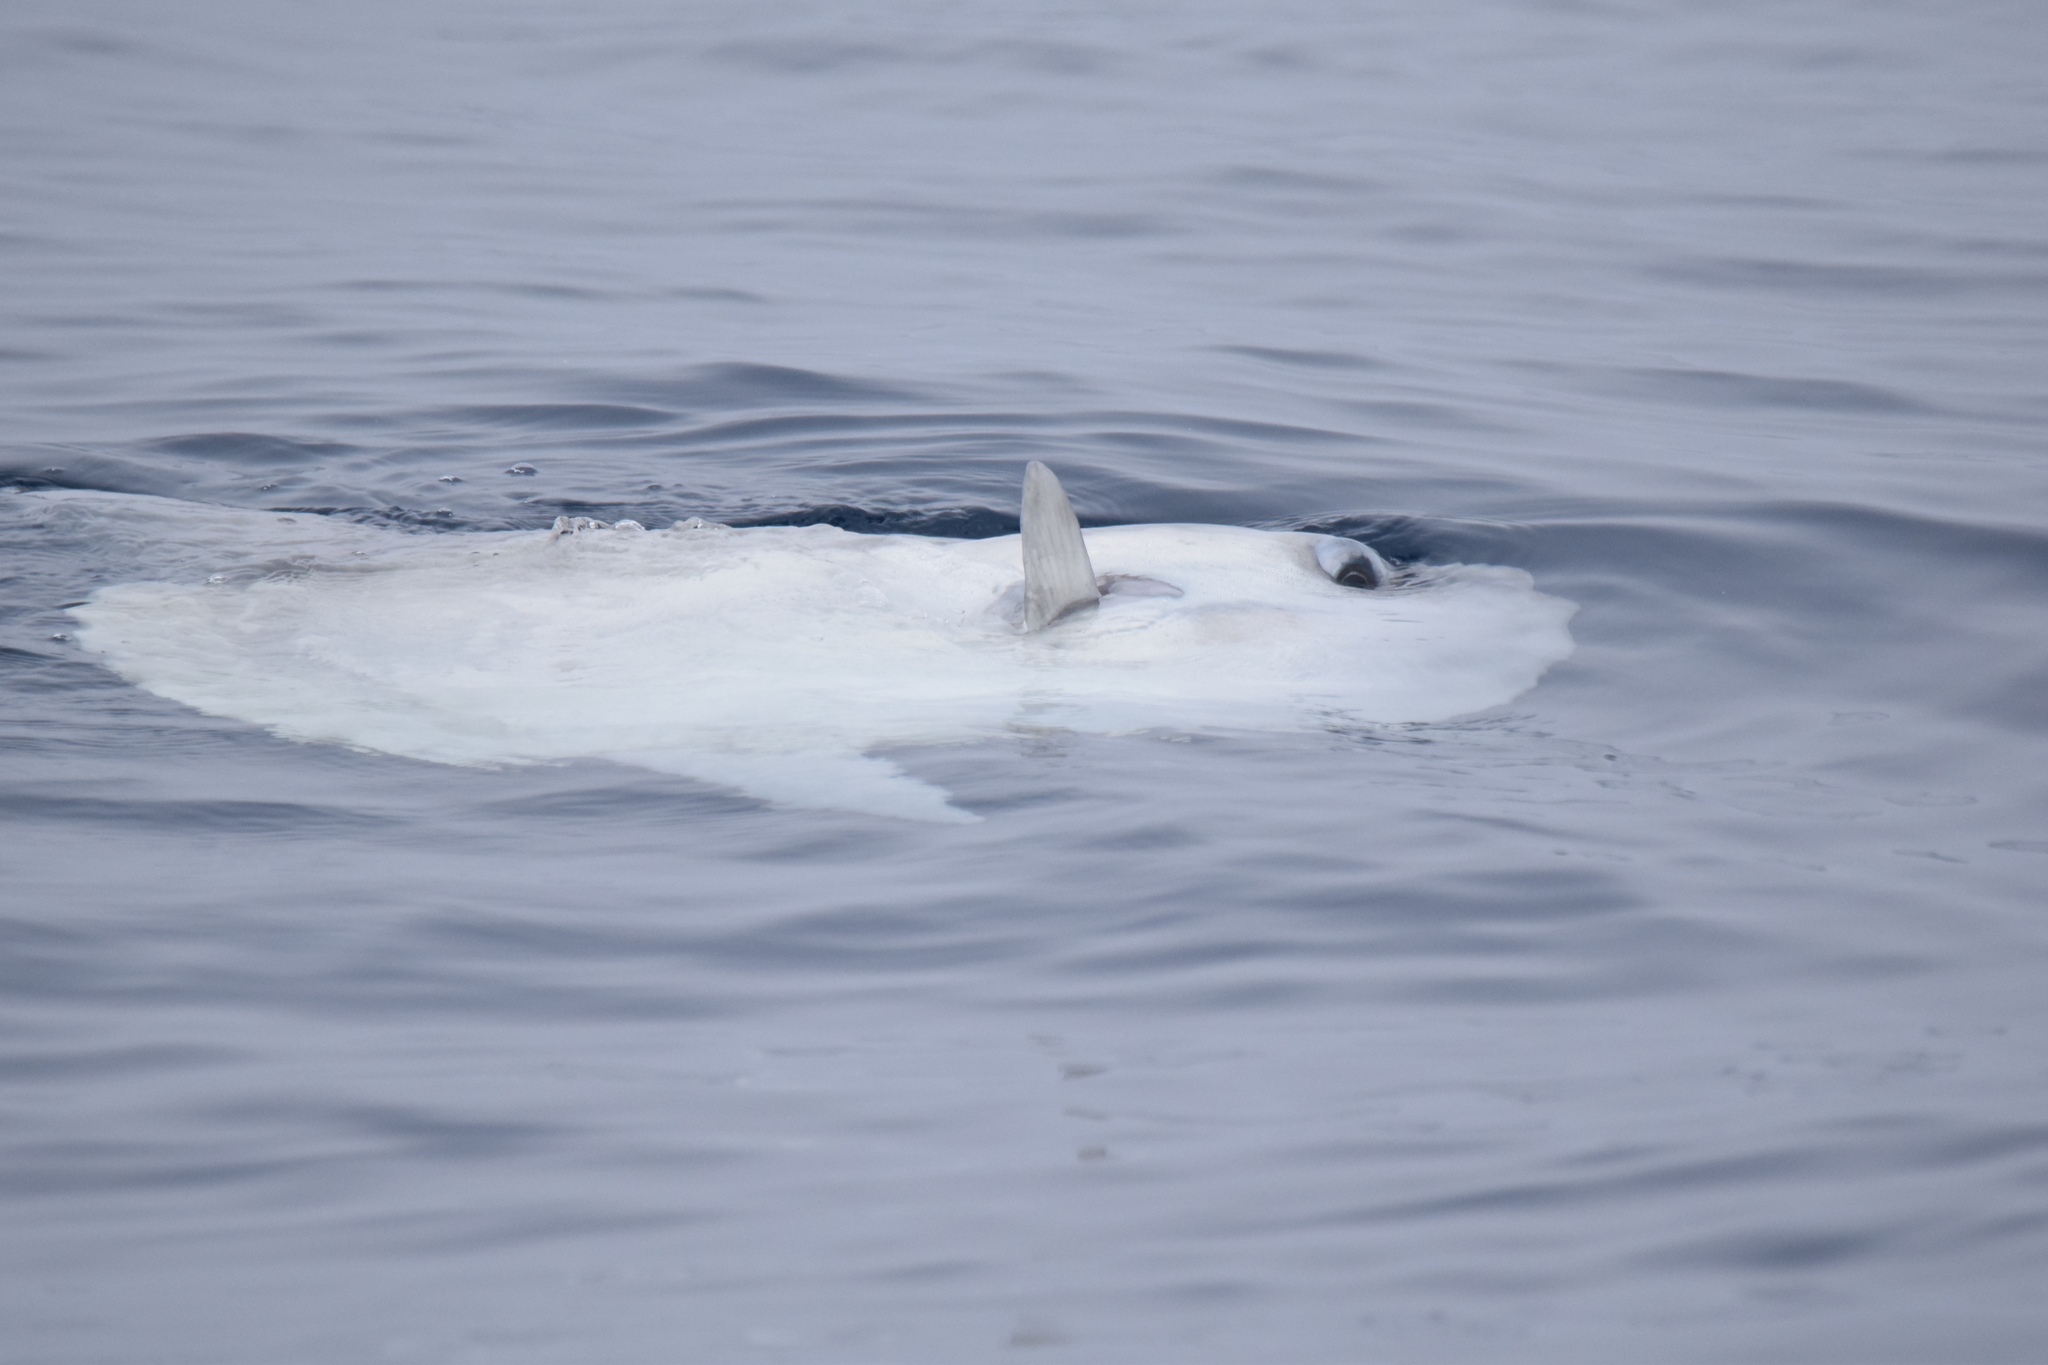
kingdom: Animalia
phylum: Chordata
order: Tetraodontiformes
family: Molidae
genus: Mola
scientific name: Mola mola
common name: Ocean sunfish
